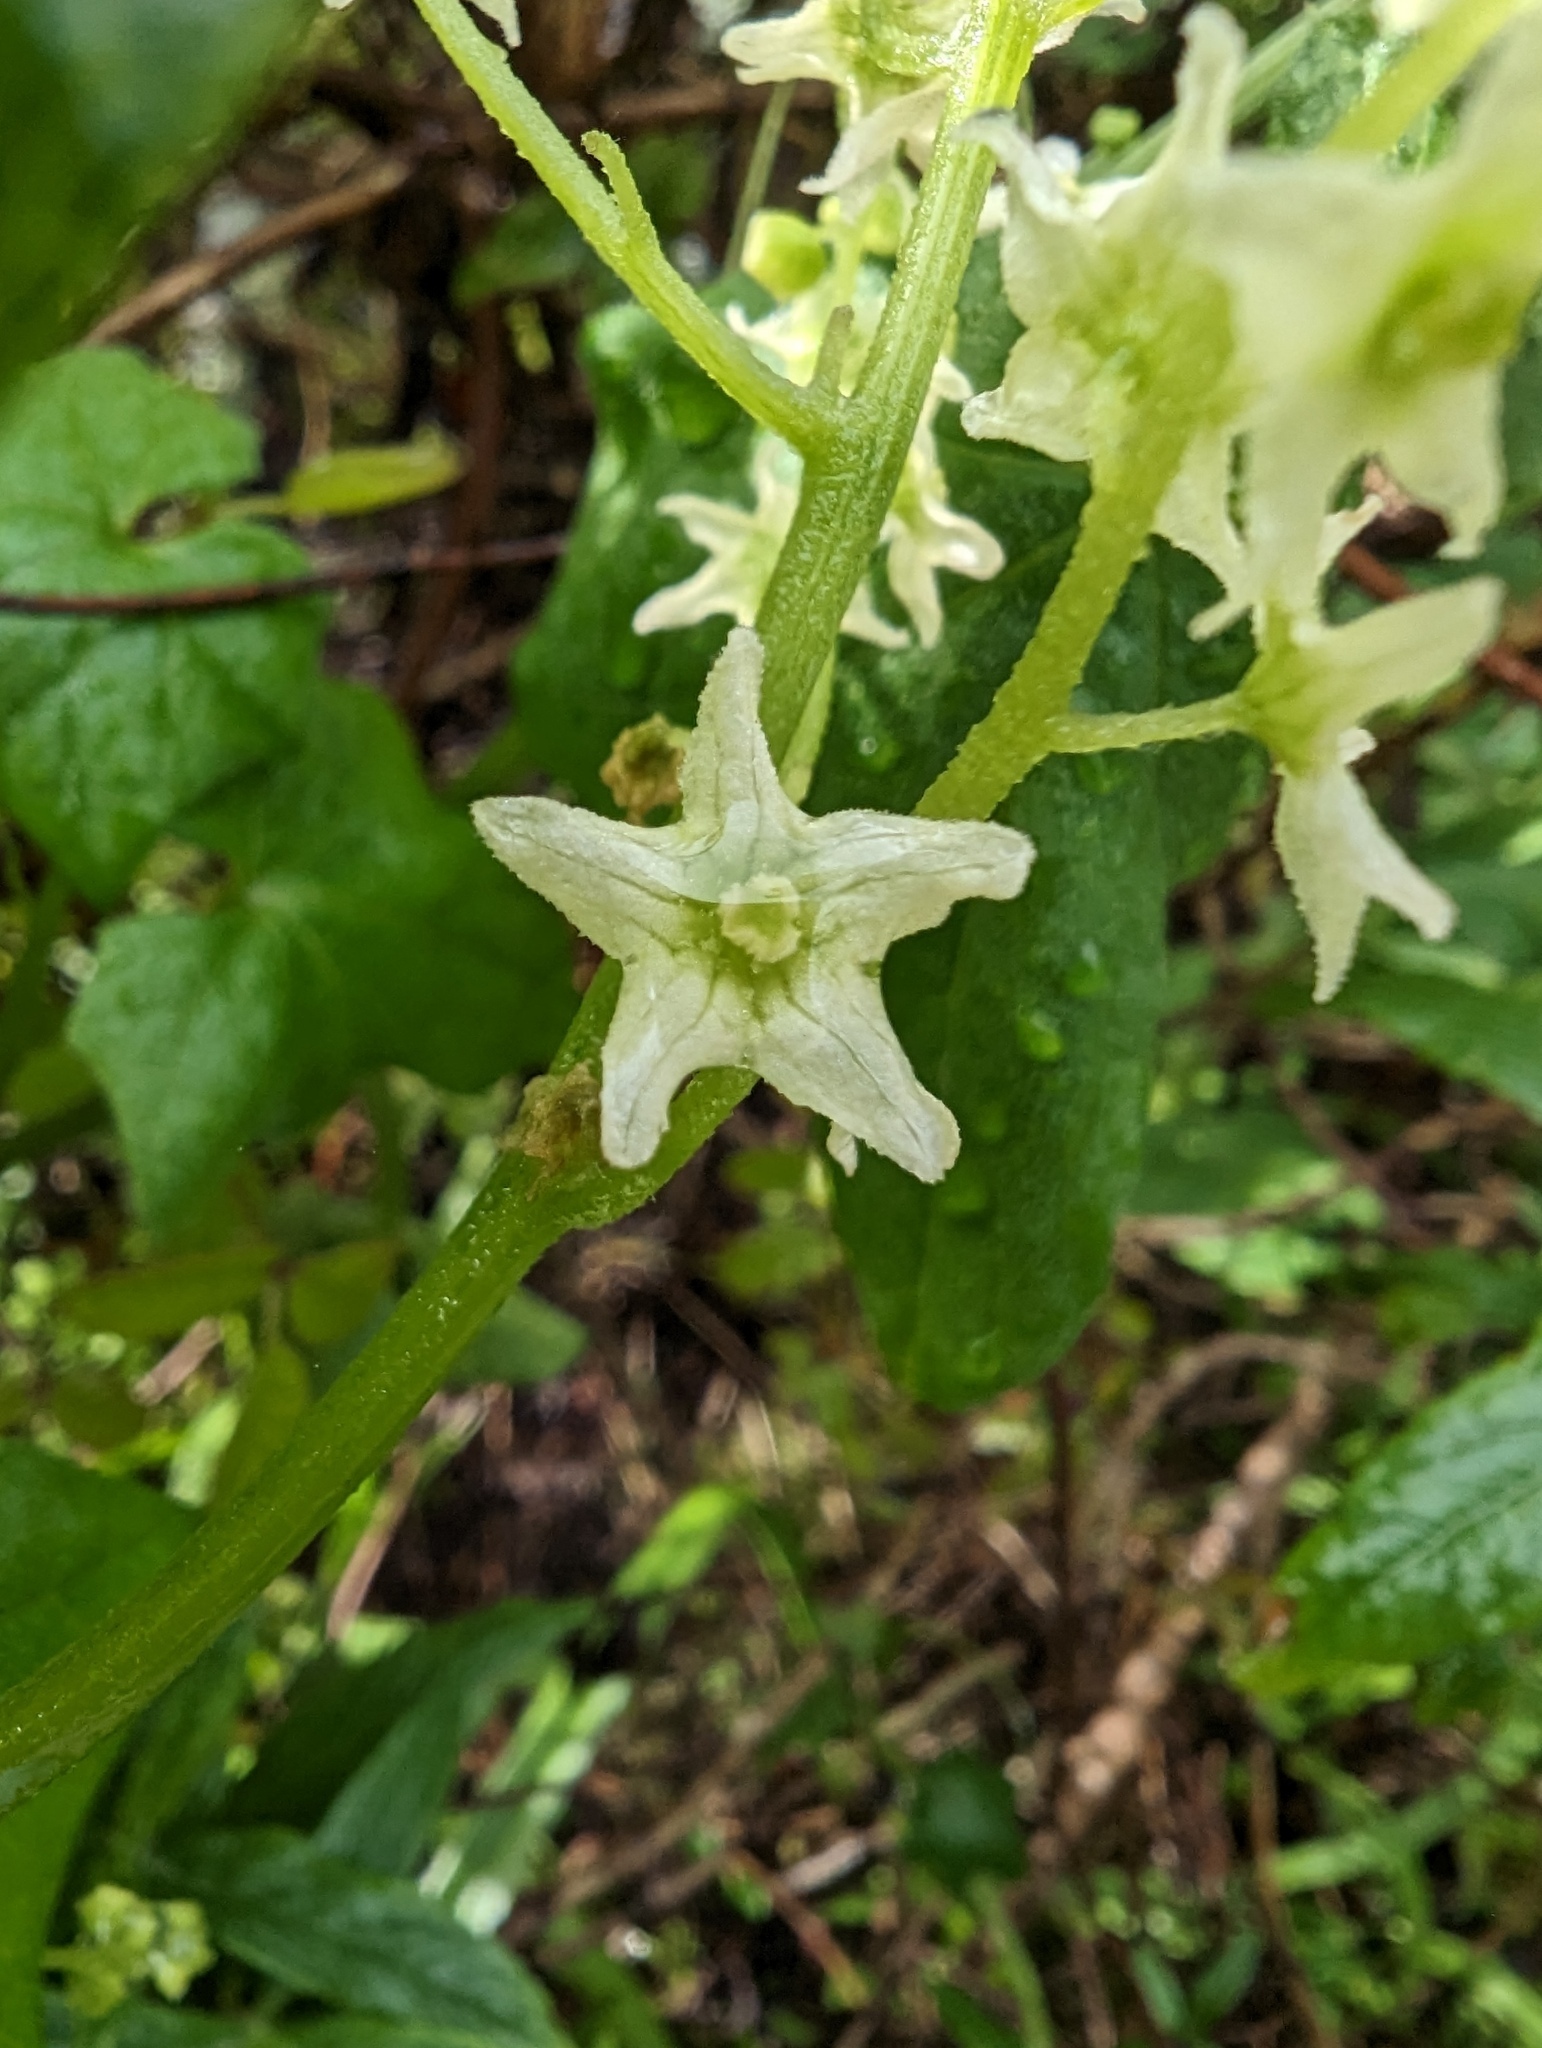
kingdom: Plantae
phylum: Tracheophyta
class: Magnoliopsida
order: Cucurbitales
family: Cucurbitaceae
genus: Marah
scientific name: Marah fabacea
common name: California manroot
